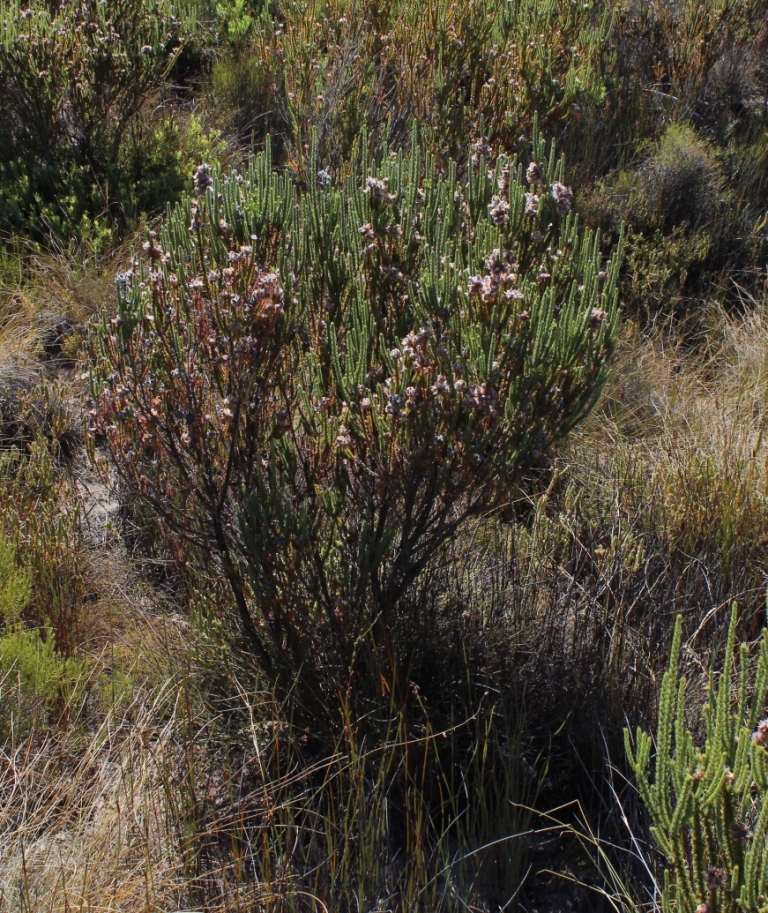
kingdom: Plantae
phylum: Tracheophyta
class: Magnoliopsida
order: Fabales
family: Fabaceae
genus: Aspalathus
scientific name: Aspalathus triquetra
